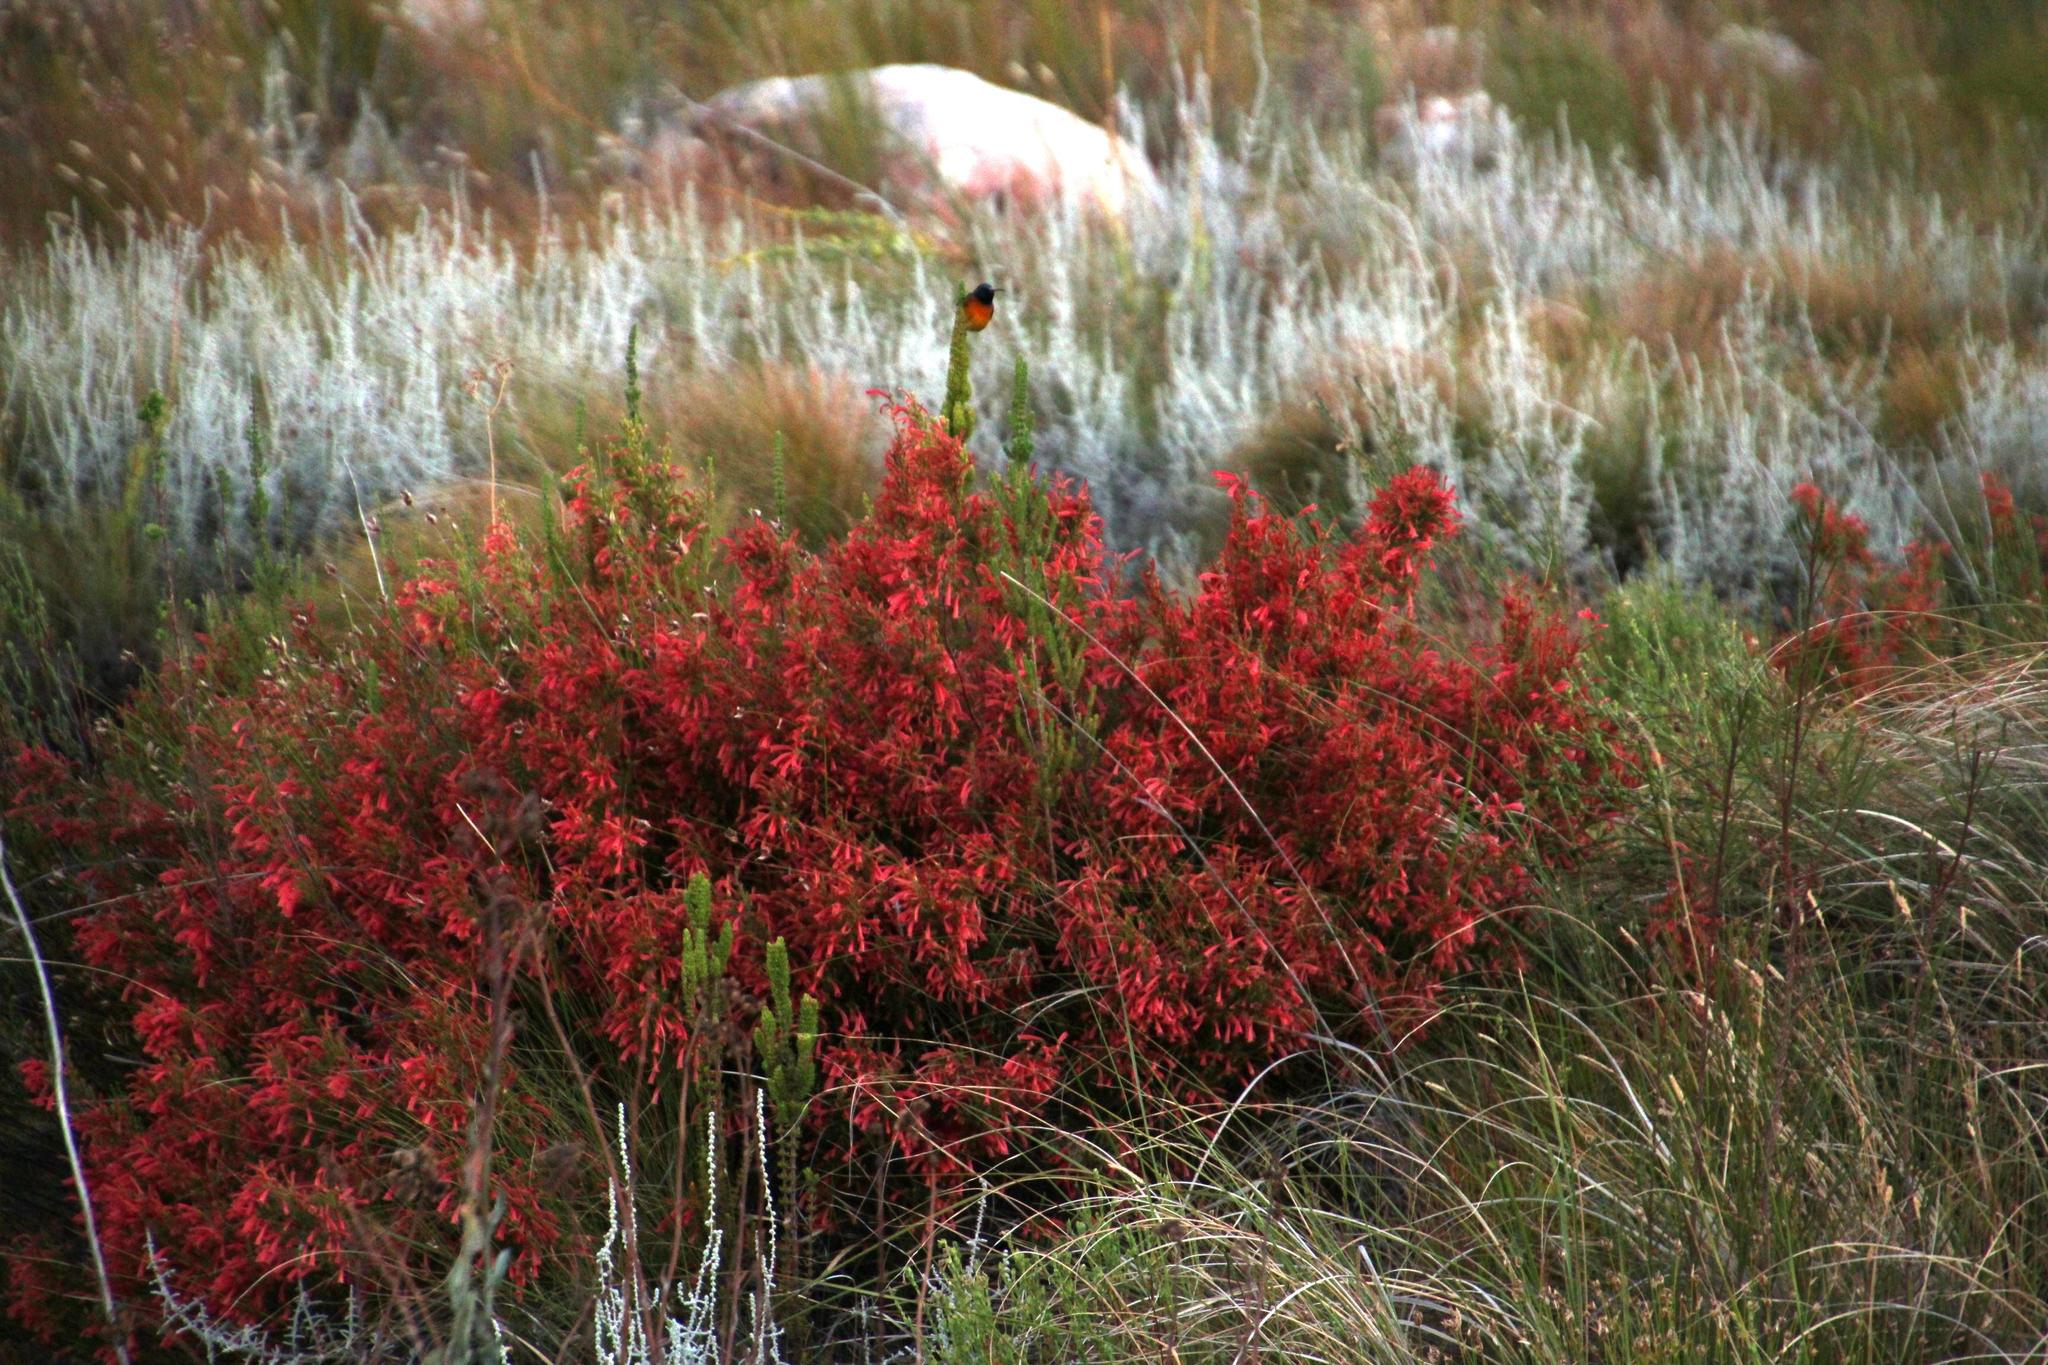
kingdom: Plantae
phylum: Tracheophyta
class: Magnoliopsida
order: Ericales
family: Ericaceae
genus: Erica
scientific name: Erica curviflora
